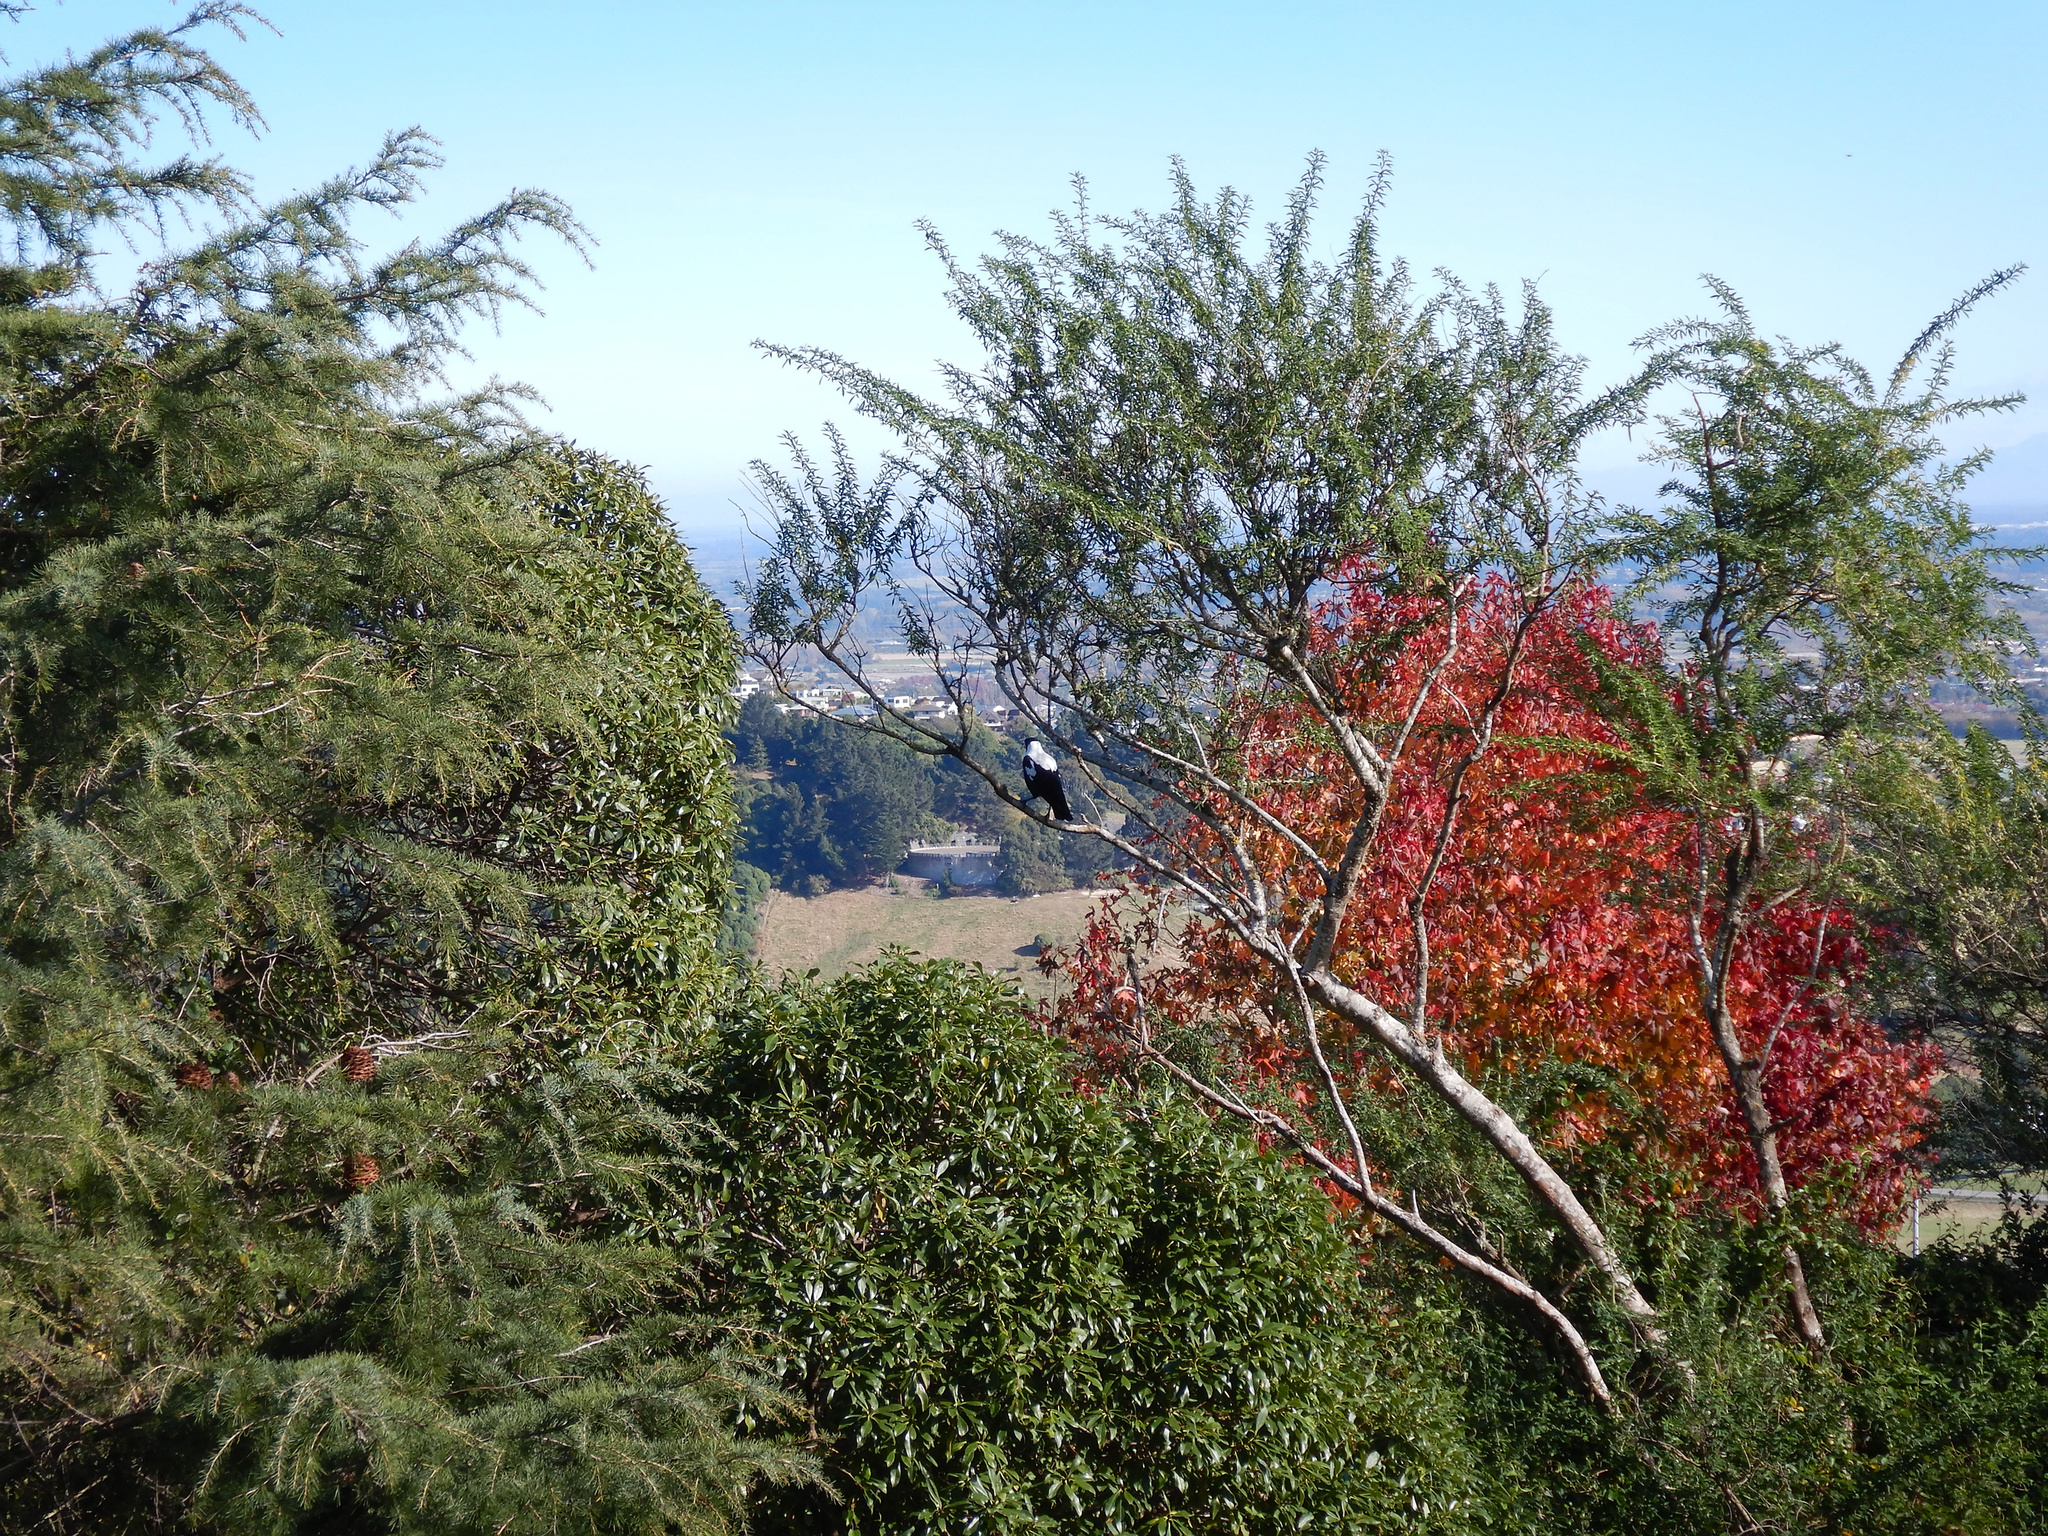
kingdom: Animalia
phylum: Chordata
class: Aves
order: Passeriformes
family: Cracticidae
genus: Gymnorhina
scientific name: Gymnorhina tibicen
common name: Australian magpie
